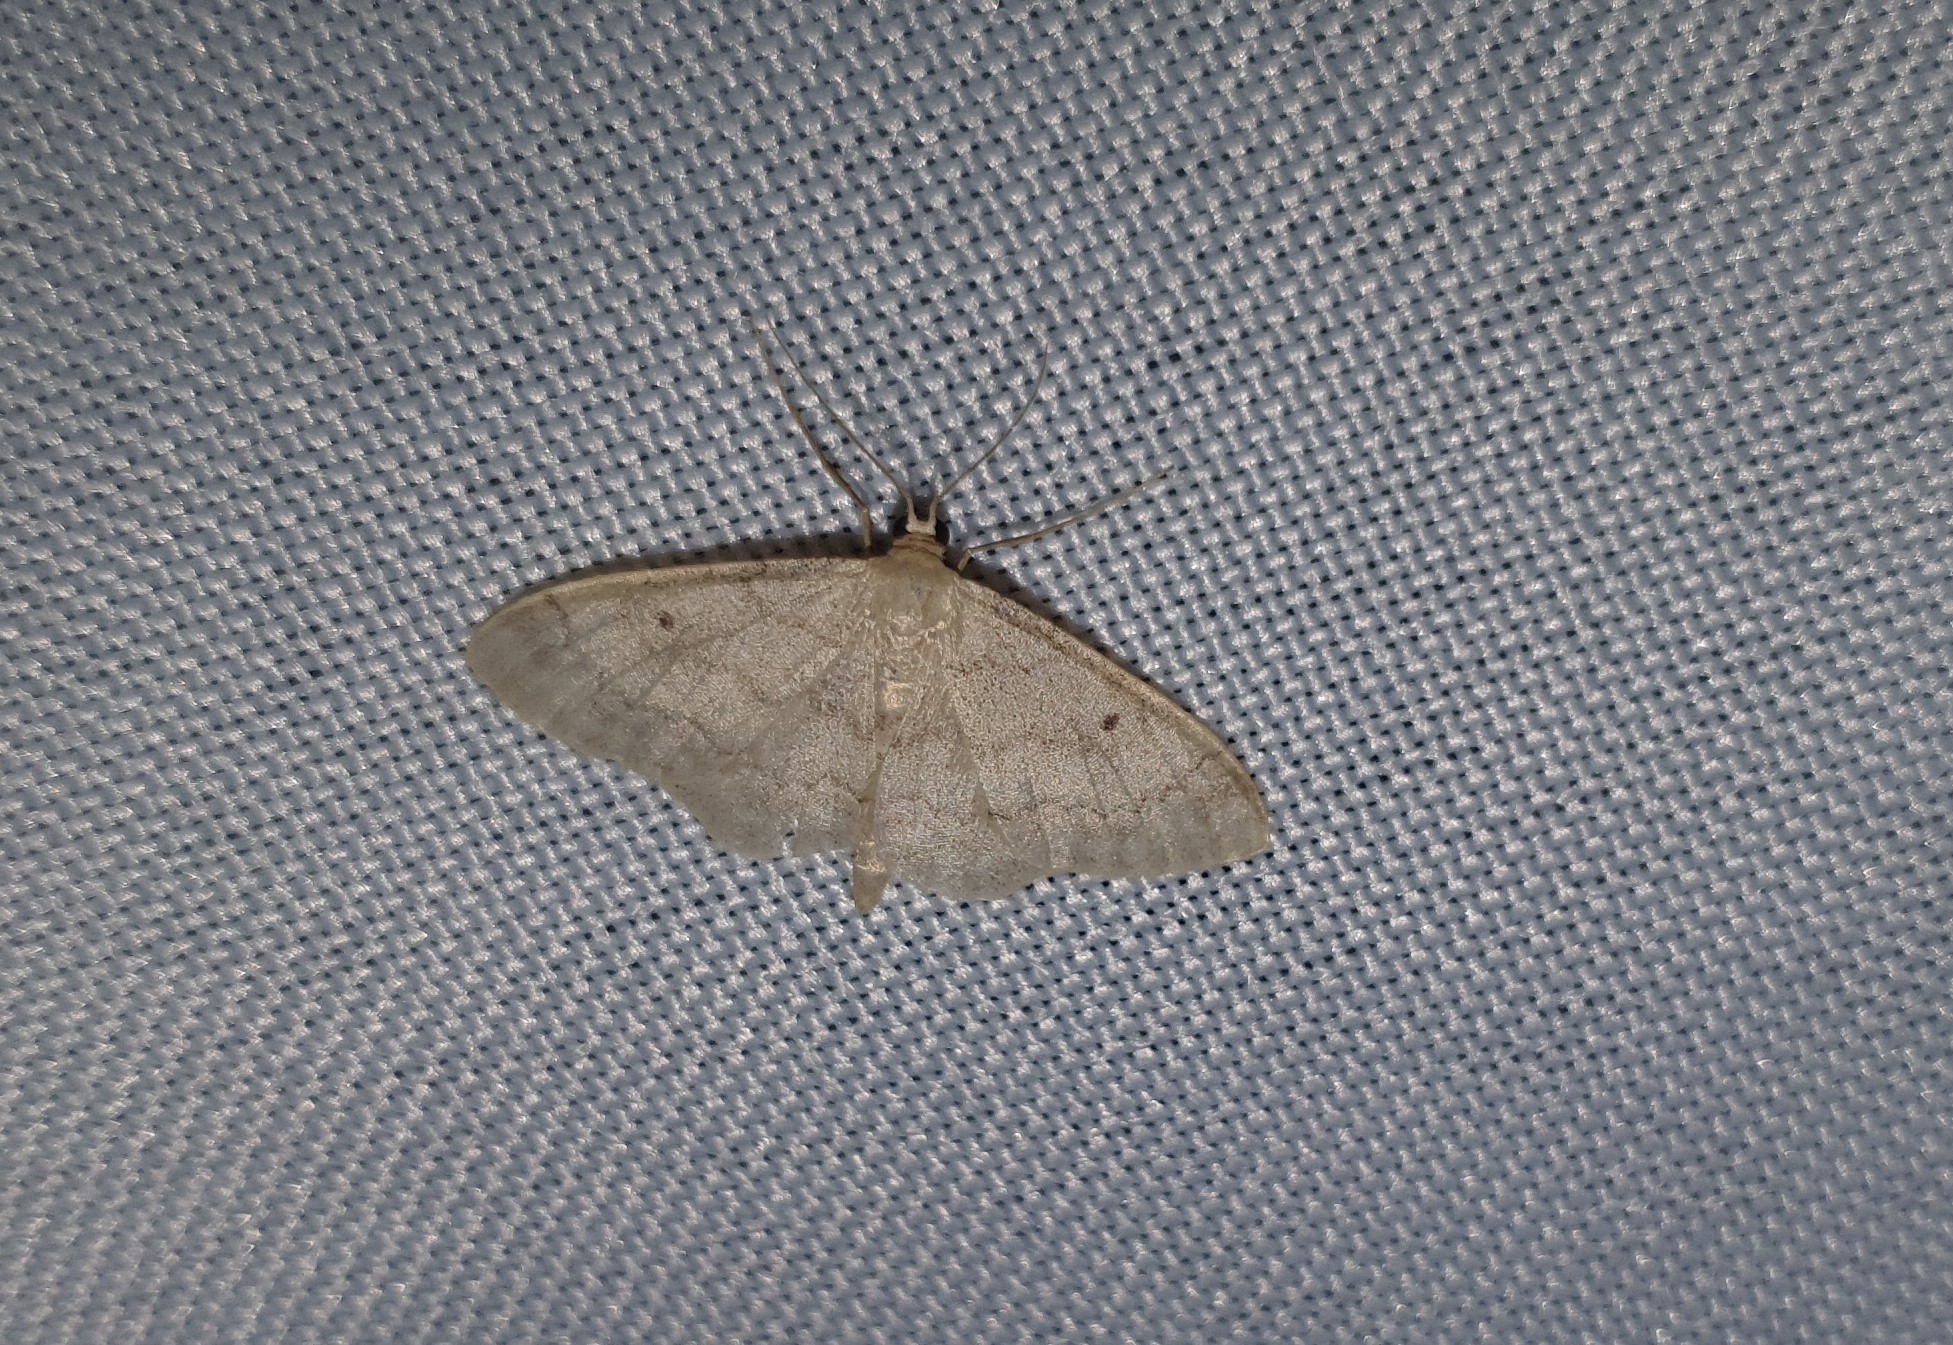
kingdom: Animalia
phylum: Arthropoda
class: Insecta
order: Lepidoptera
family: Geometridae
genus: Idaea
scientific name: Idaea biselata
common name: Small fan-footed wave
